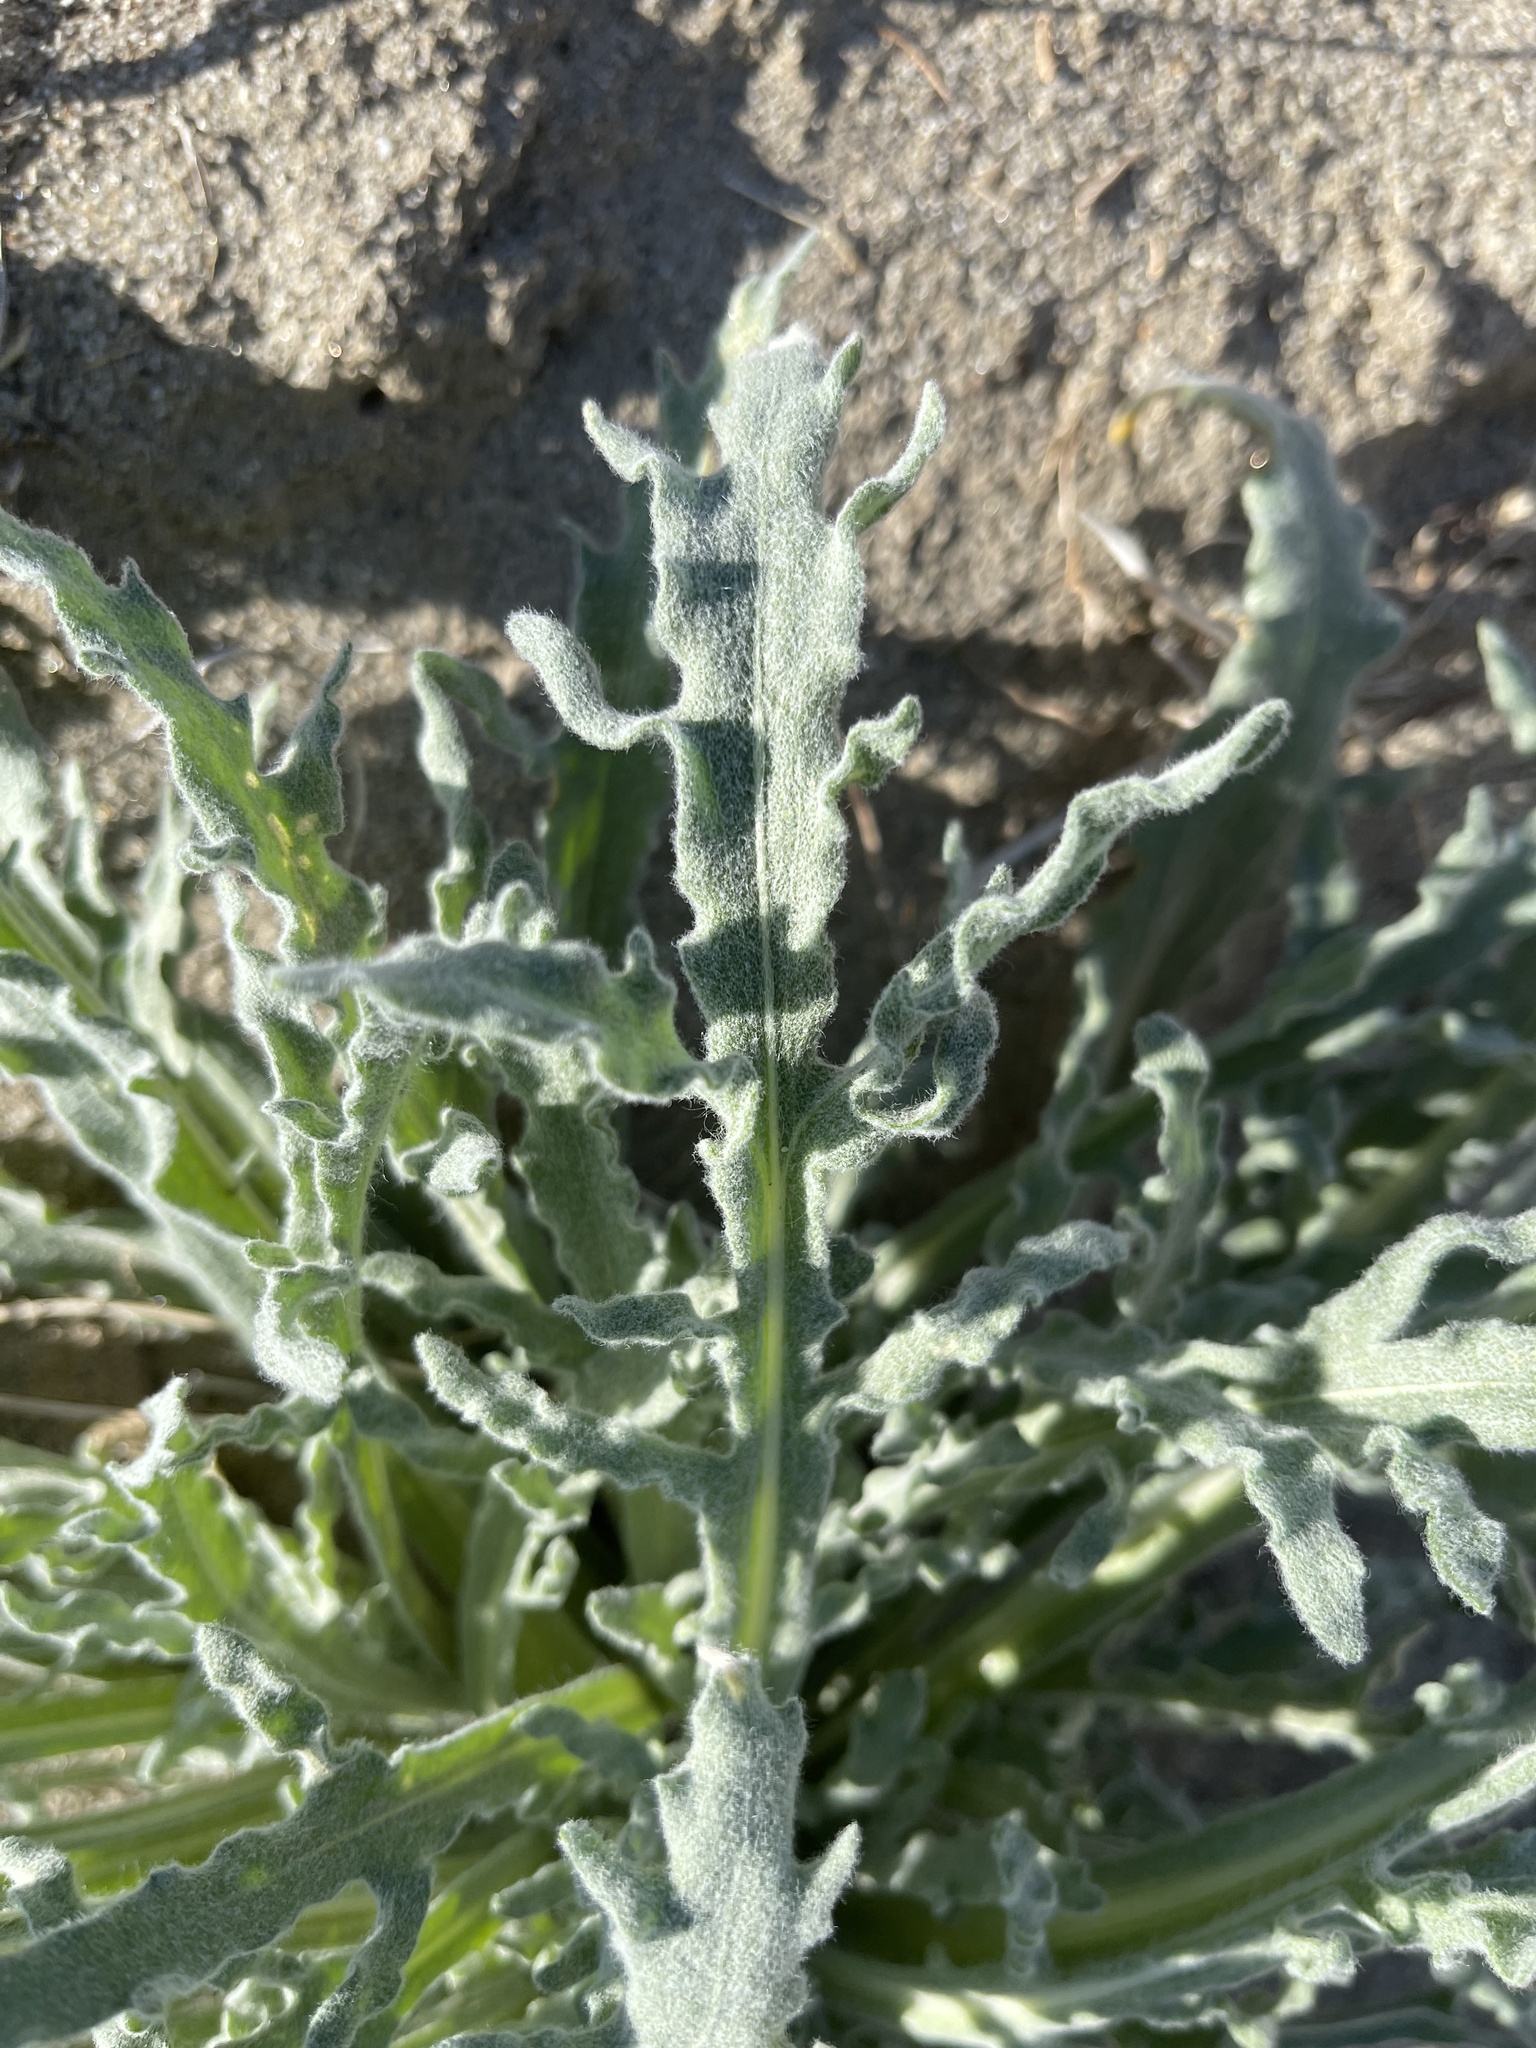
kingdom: Plantae
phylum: Tracheophyta
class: Magnoliopsida
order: Asterales
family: Asteraceae
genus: Baileya
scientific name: Baileya pauciradiata
